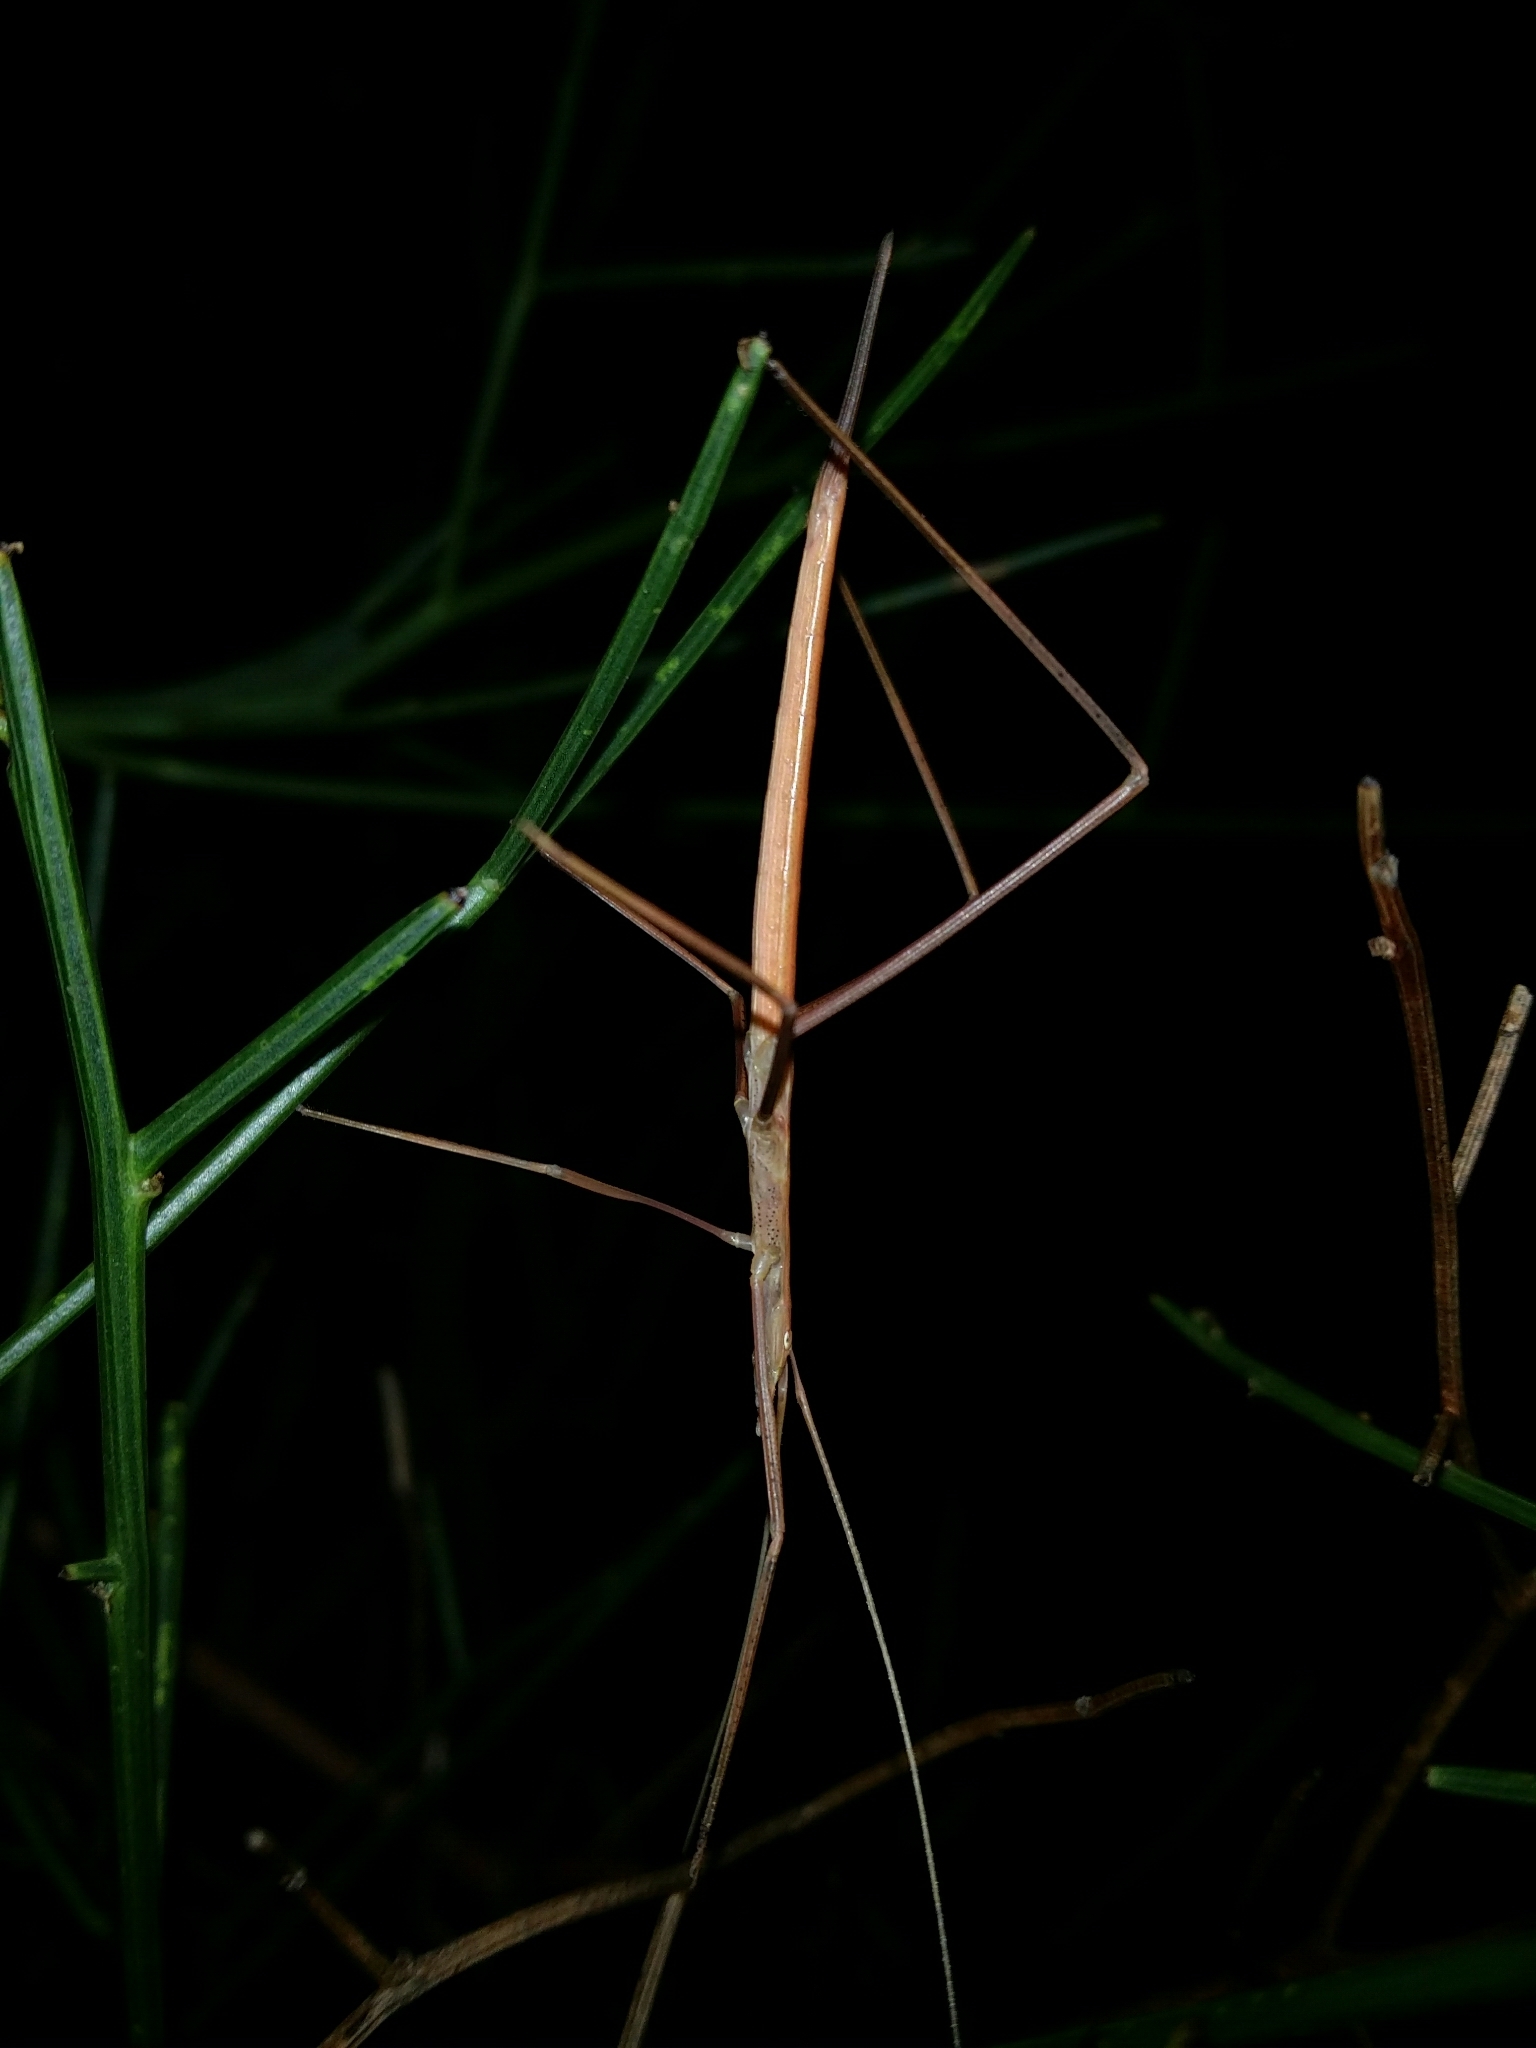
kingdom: Animalia
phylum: Arthropoda
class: Insecta
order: Orthoptera
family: Tettigoniidae
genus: Phasmodes
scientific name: Phasmodes ranatriformis
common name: King's park stick katydid
